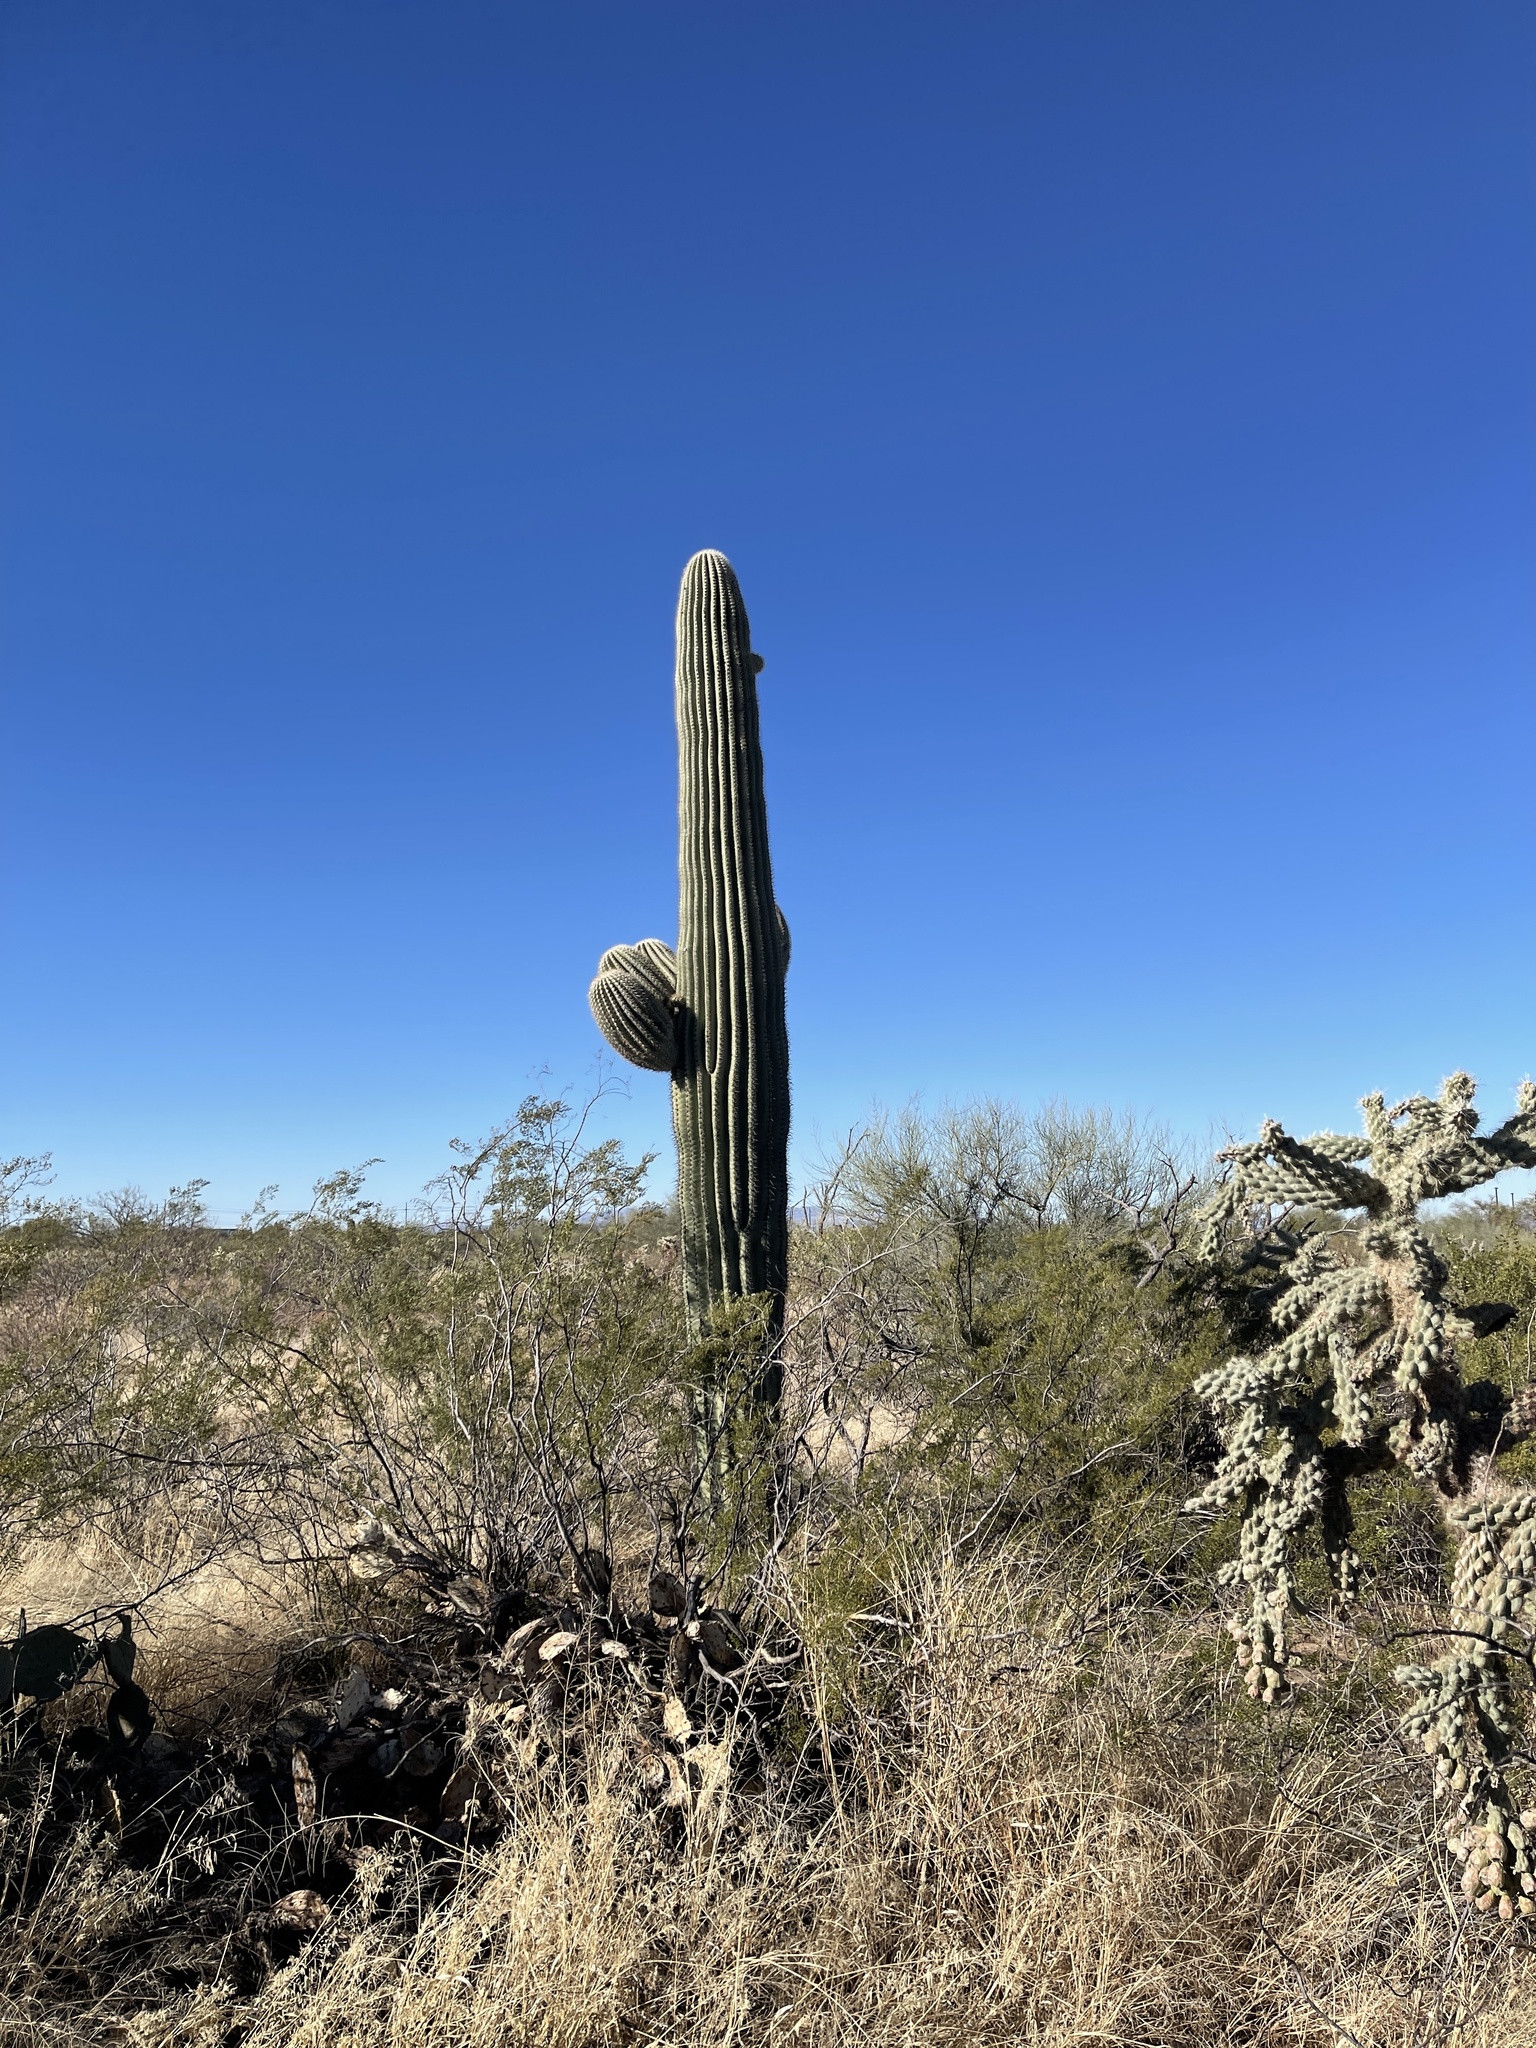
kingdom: Plantae
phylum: Tracheophyta
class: Magnoliopsida
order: Caryophyllales
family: Cactaceae
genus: Carnegiea
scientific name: Carnegiea gigantea
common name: Saguaro
